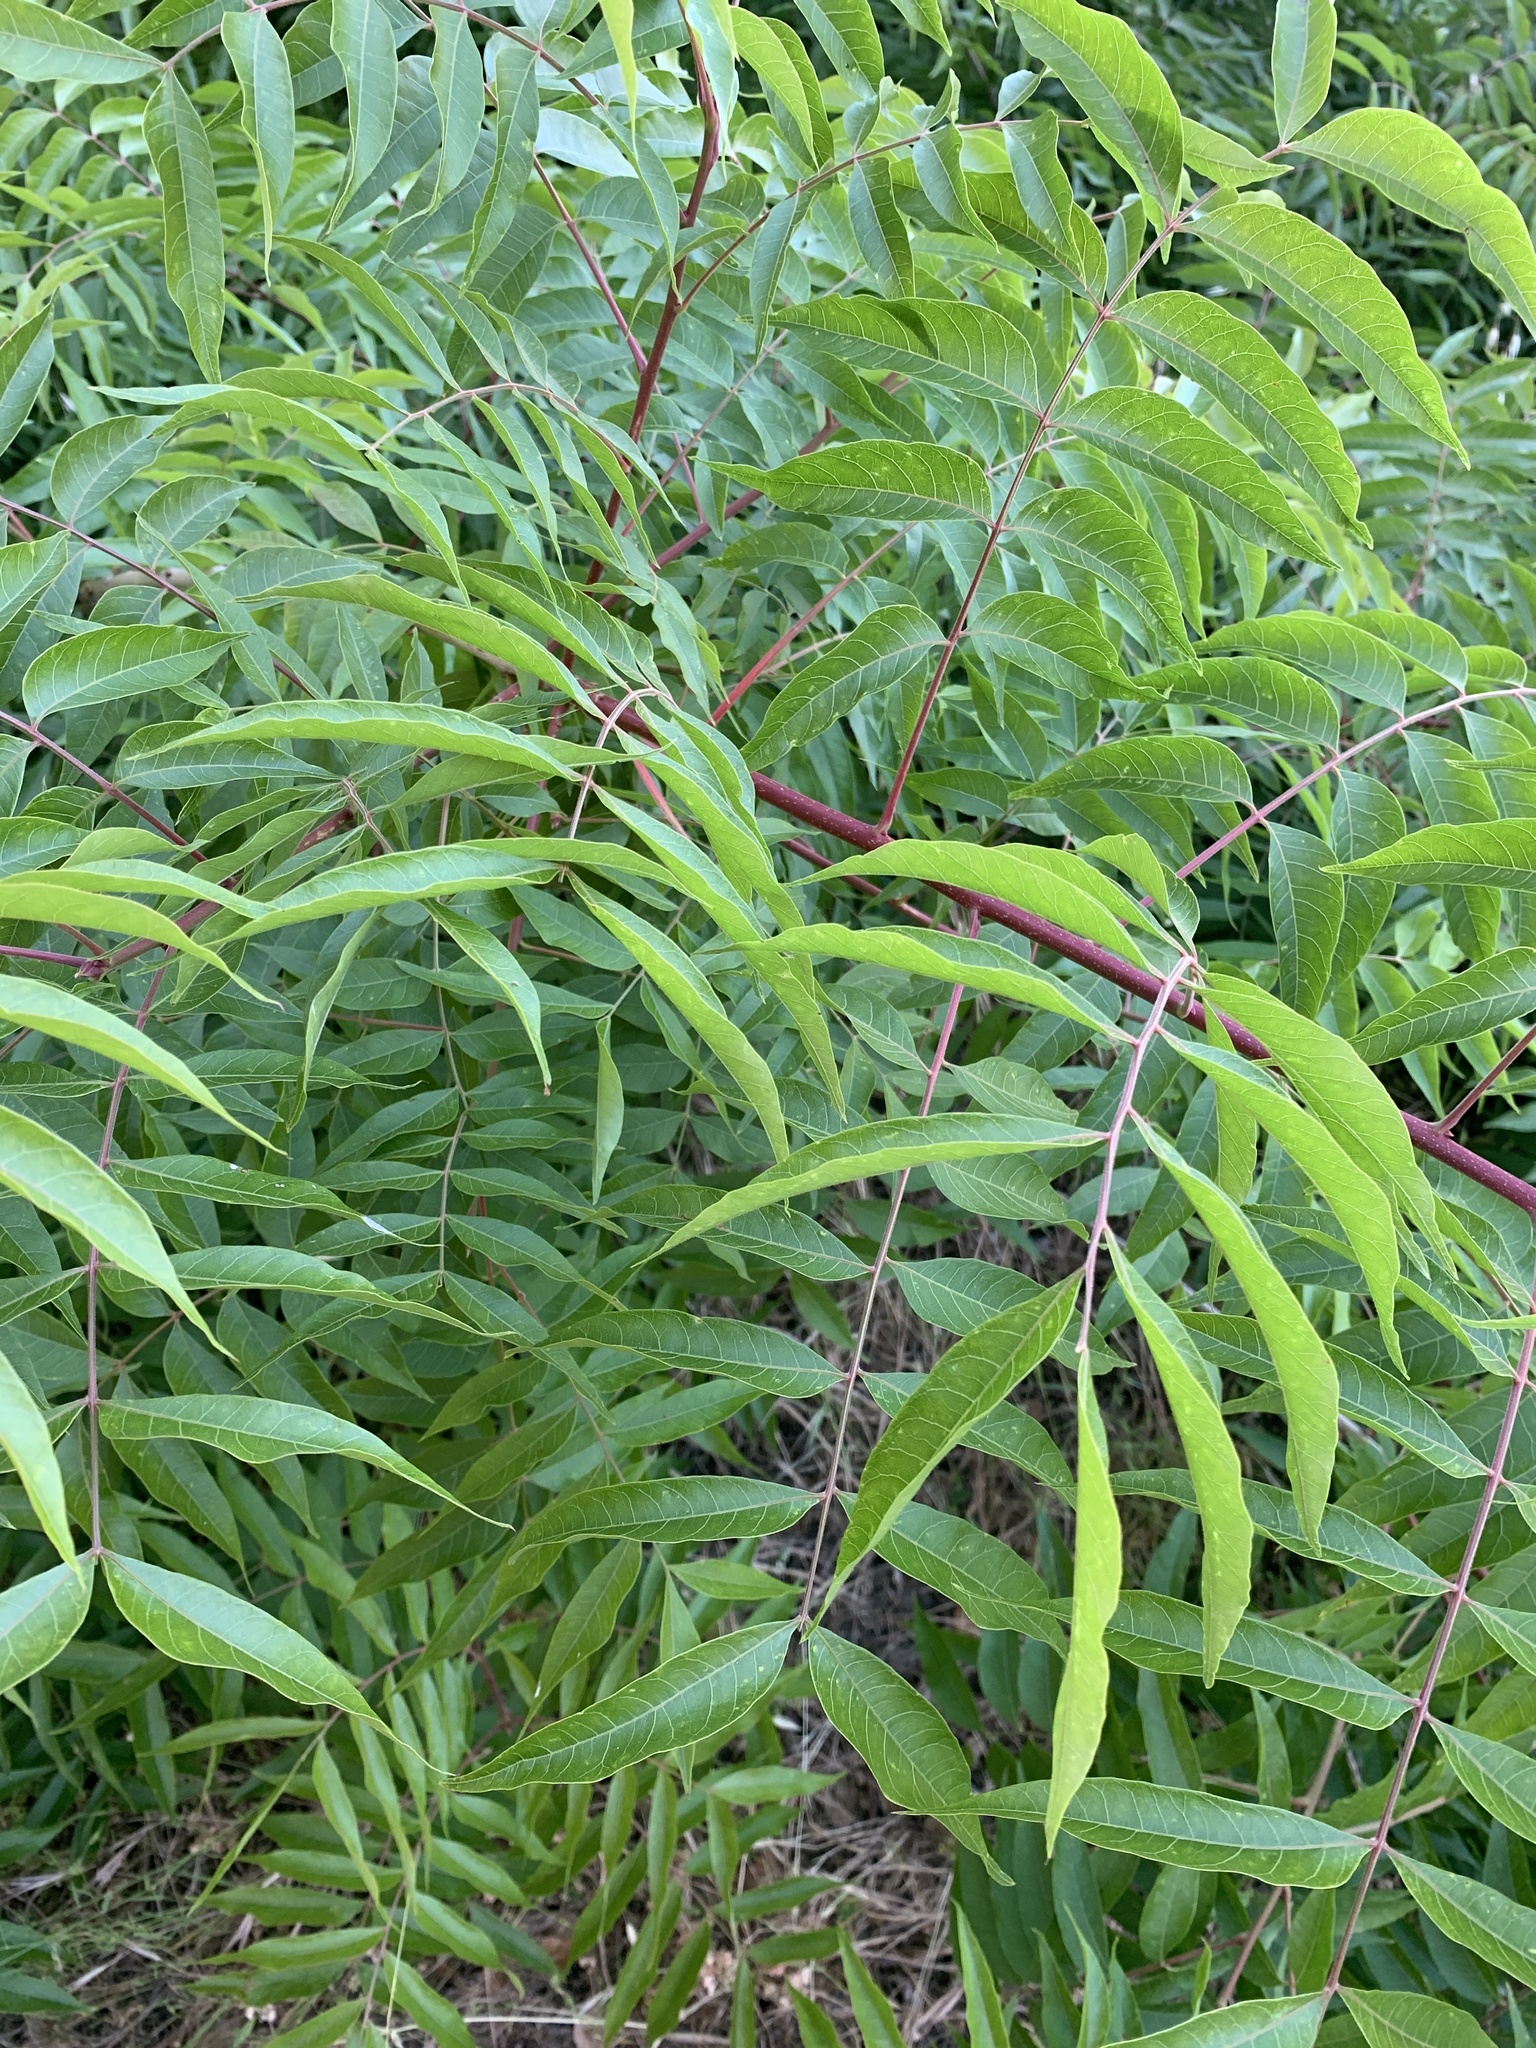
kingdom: Plantae
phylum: Tracheophyta
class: Magnoliopsida
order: Sapindales
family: Anacardiaceae
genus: Pistacia
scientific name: Pistacia chinensis
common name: Chinese pistache
